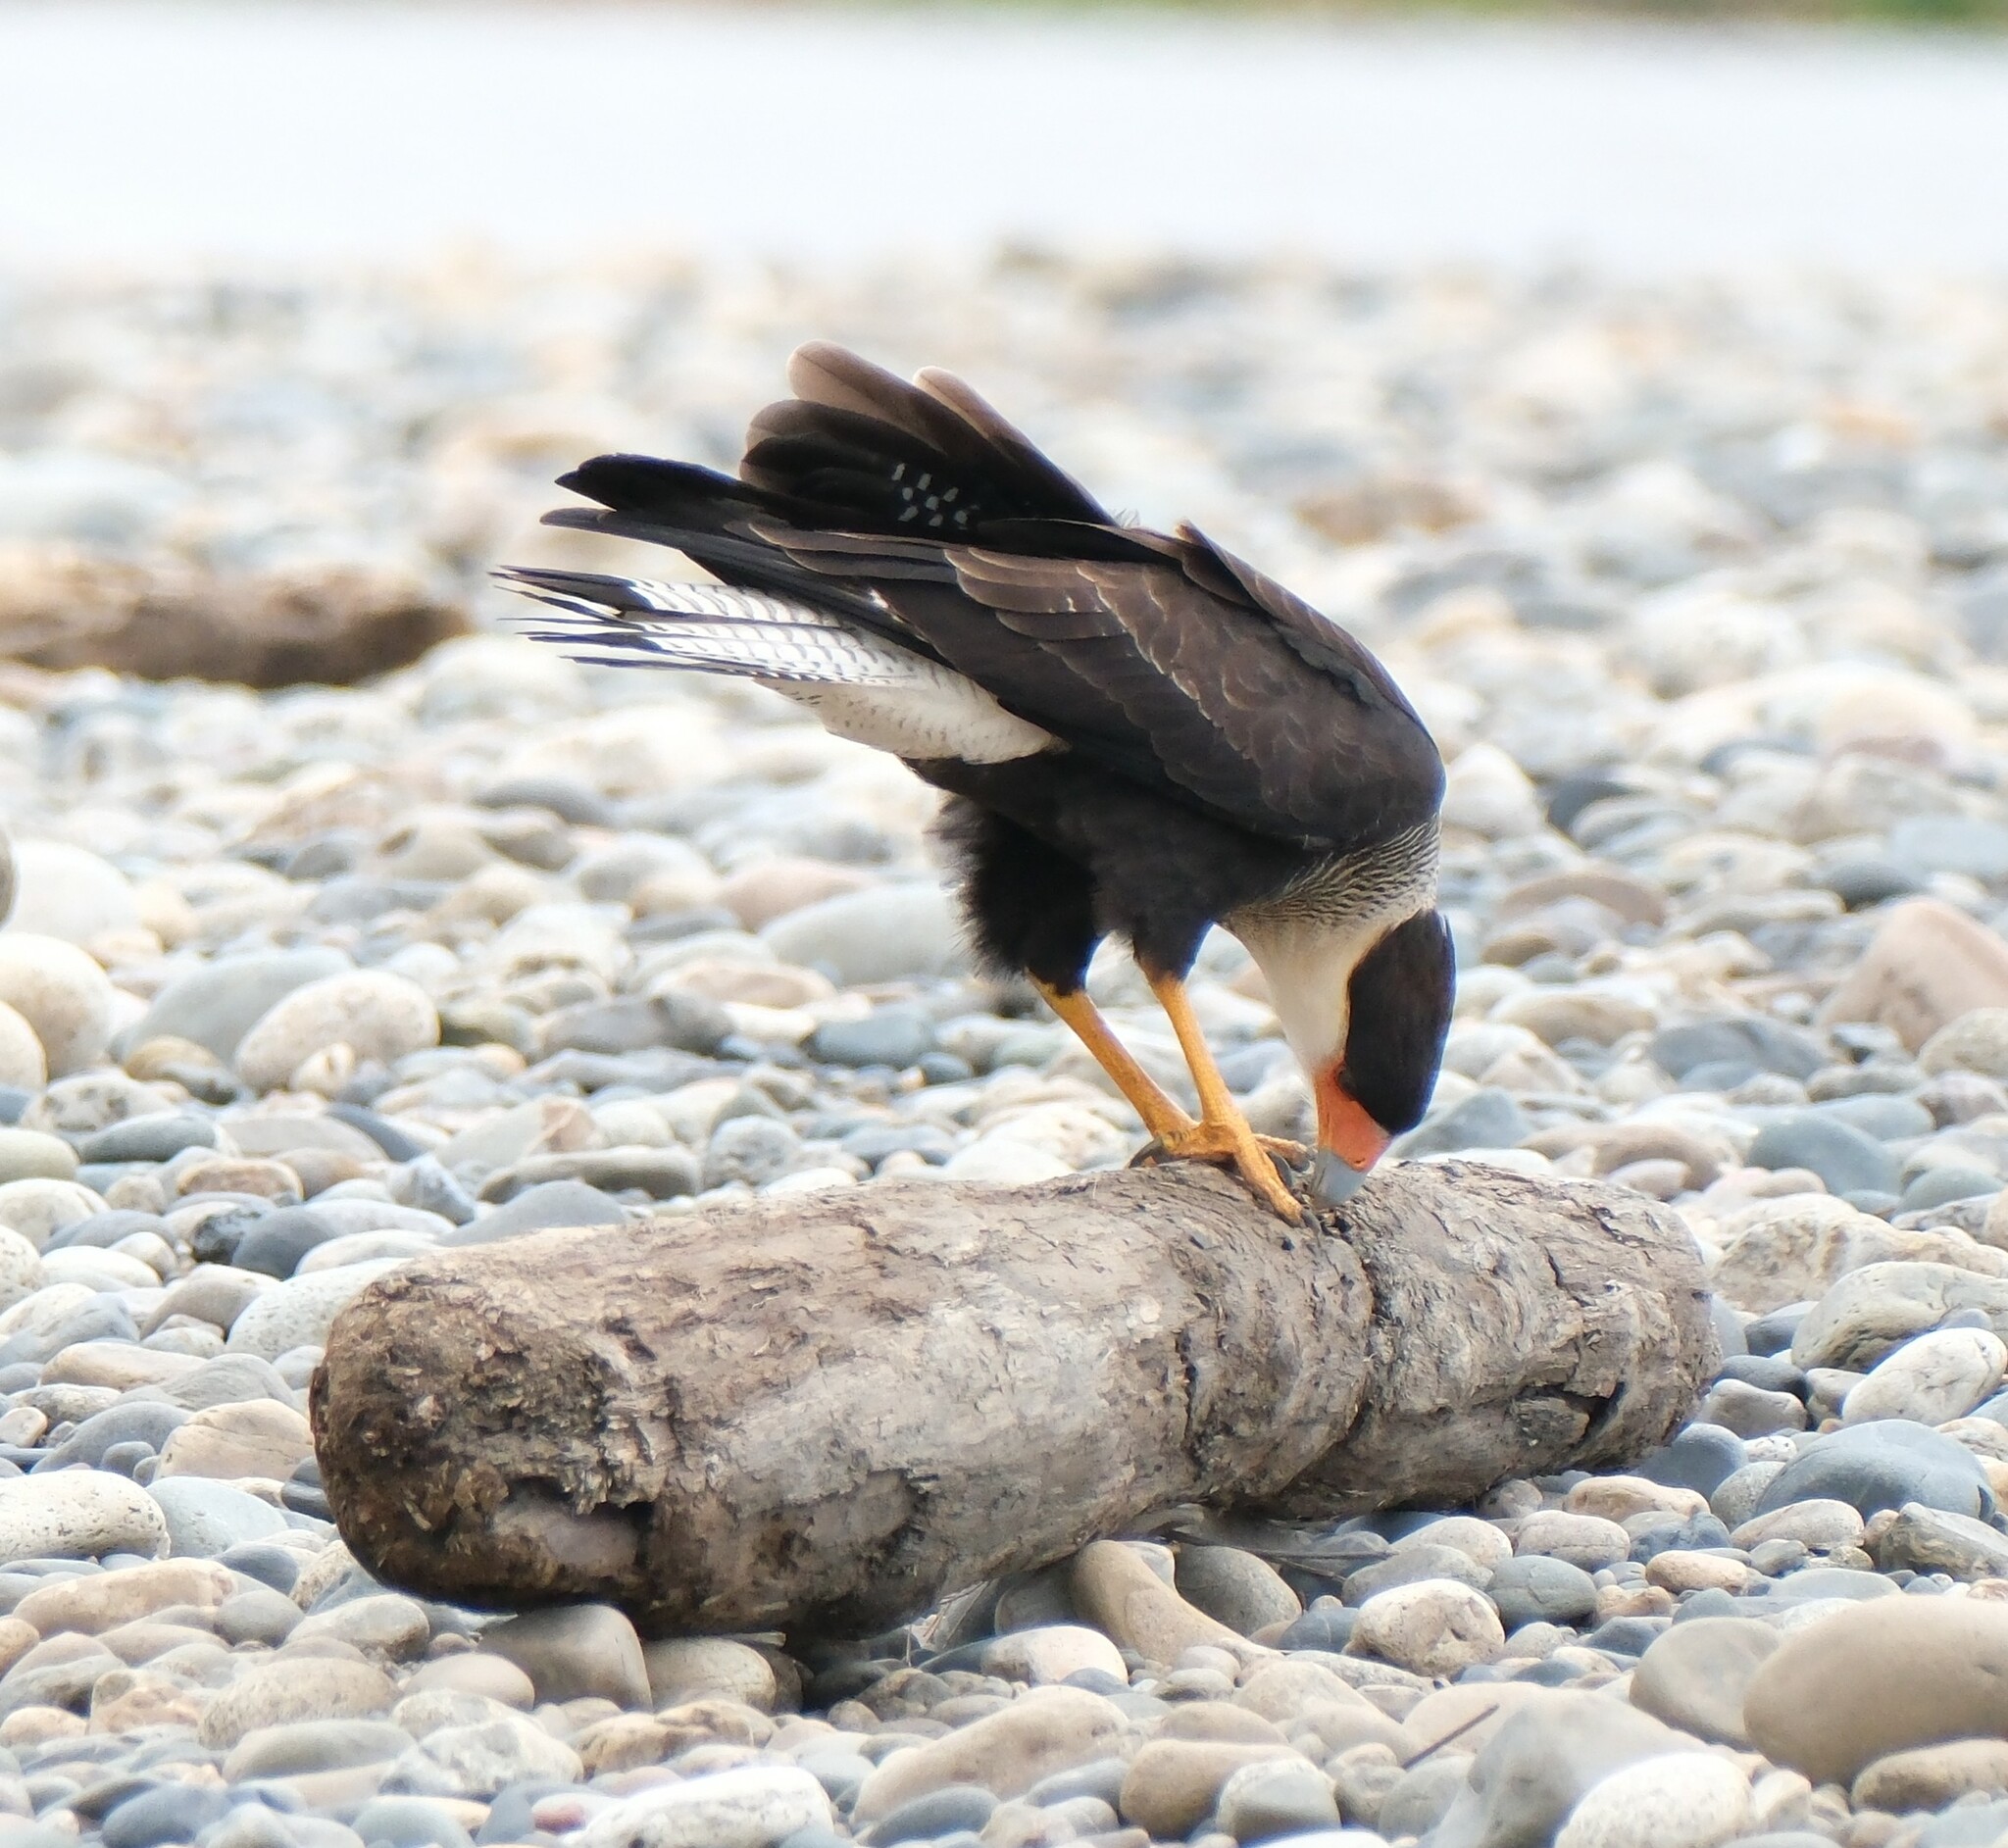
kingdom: Animalia
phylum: Chordata
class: Aves
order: Falconiformes
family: Falconidae
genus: Caracara
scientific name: Caracara plancus
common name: Southern caracara
